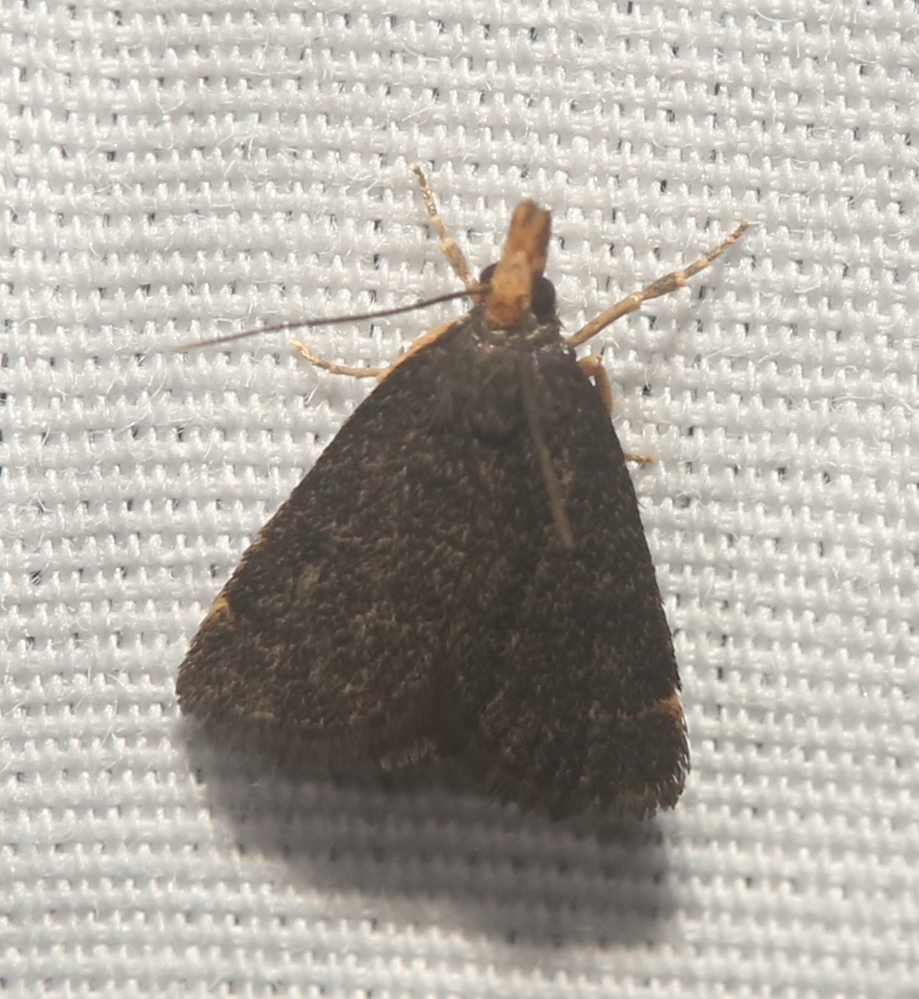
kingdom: Animalia
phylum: Arthropoda
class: Insecta
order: Lepidoptera
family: Crambidae
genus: Pyrausta
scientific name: Pyrausta merrickalis
